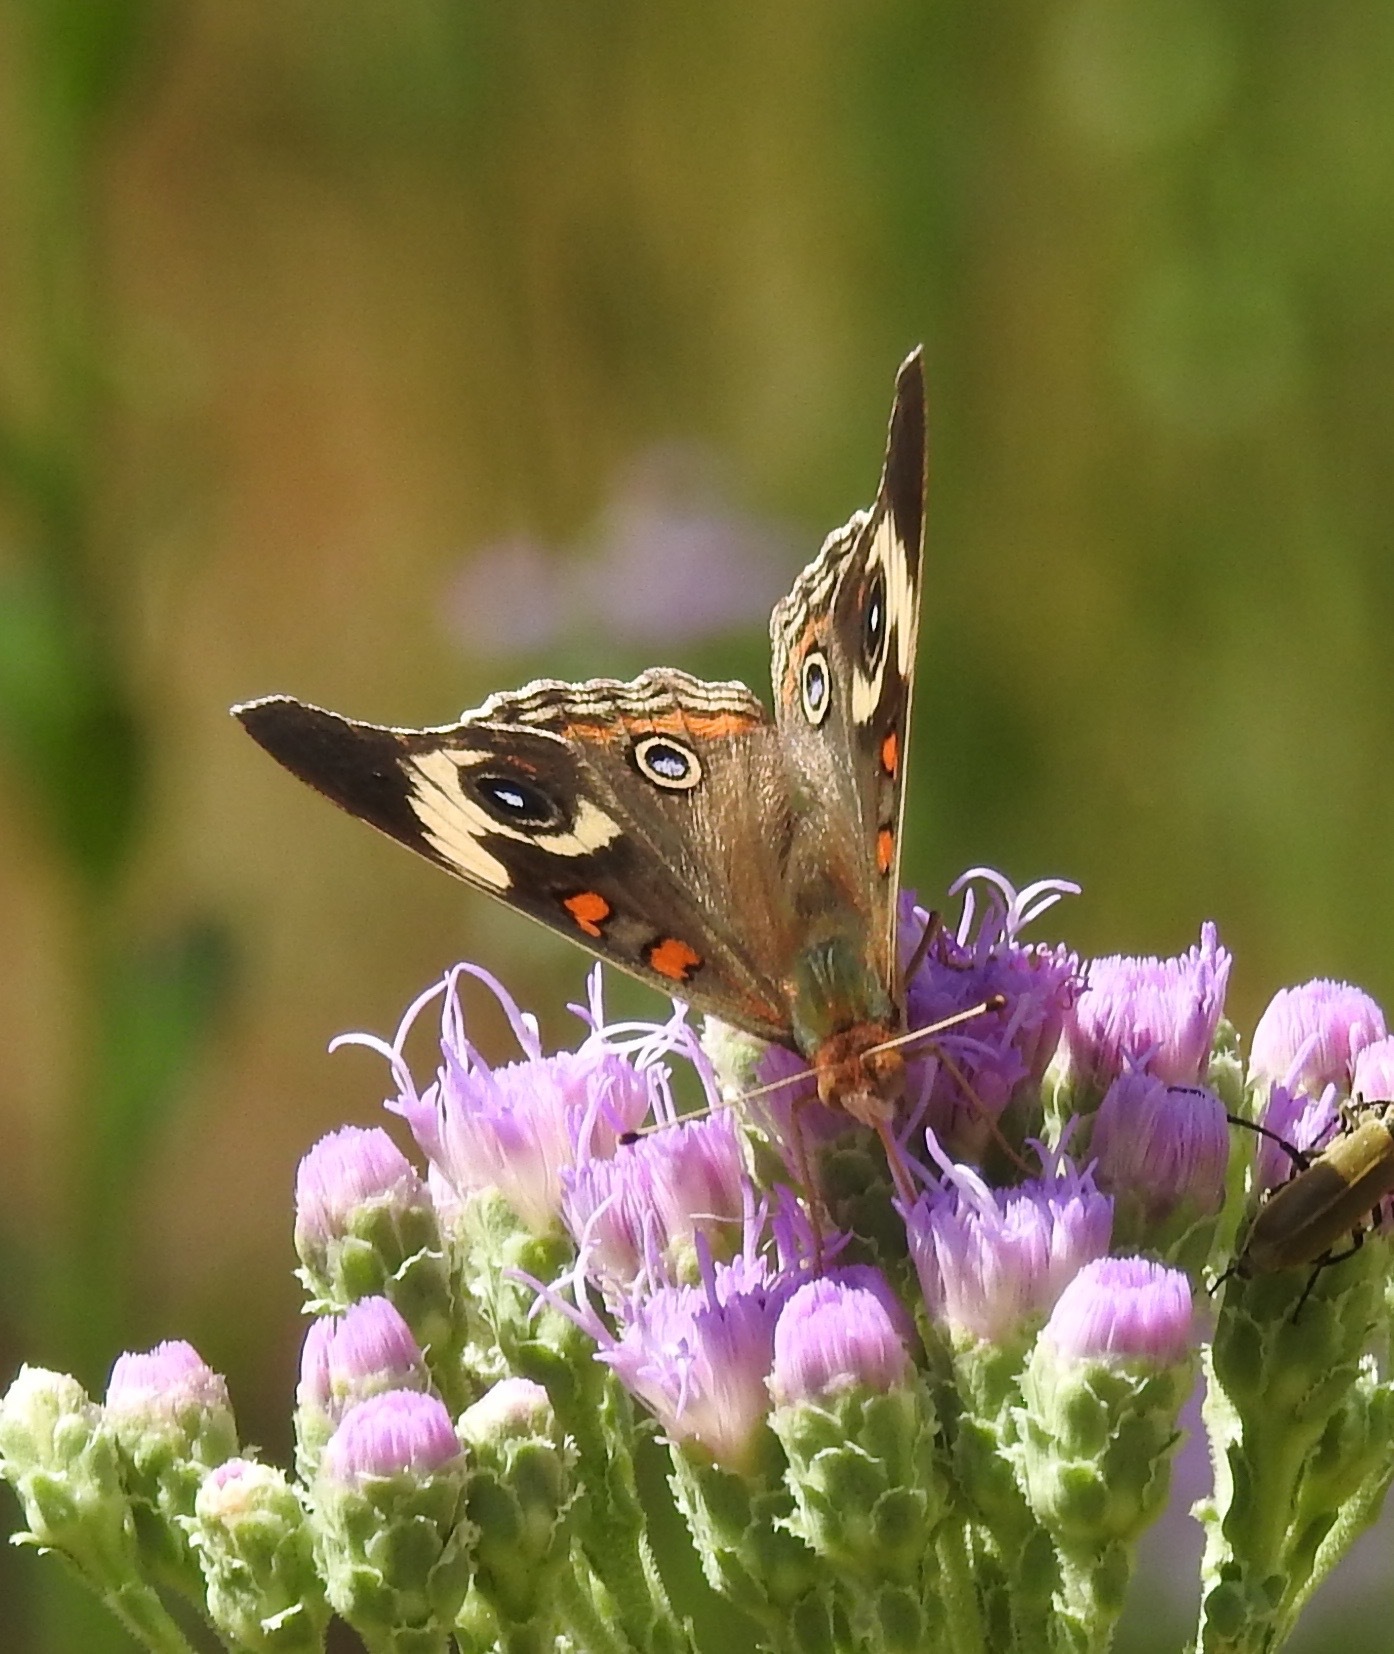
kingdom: Animalia
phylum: Arthropoda
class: Insecta
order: Lepidoptera
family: Nymphalidae
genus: Junonia
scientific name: Junonia coenia
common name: Common buckeye
